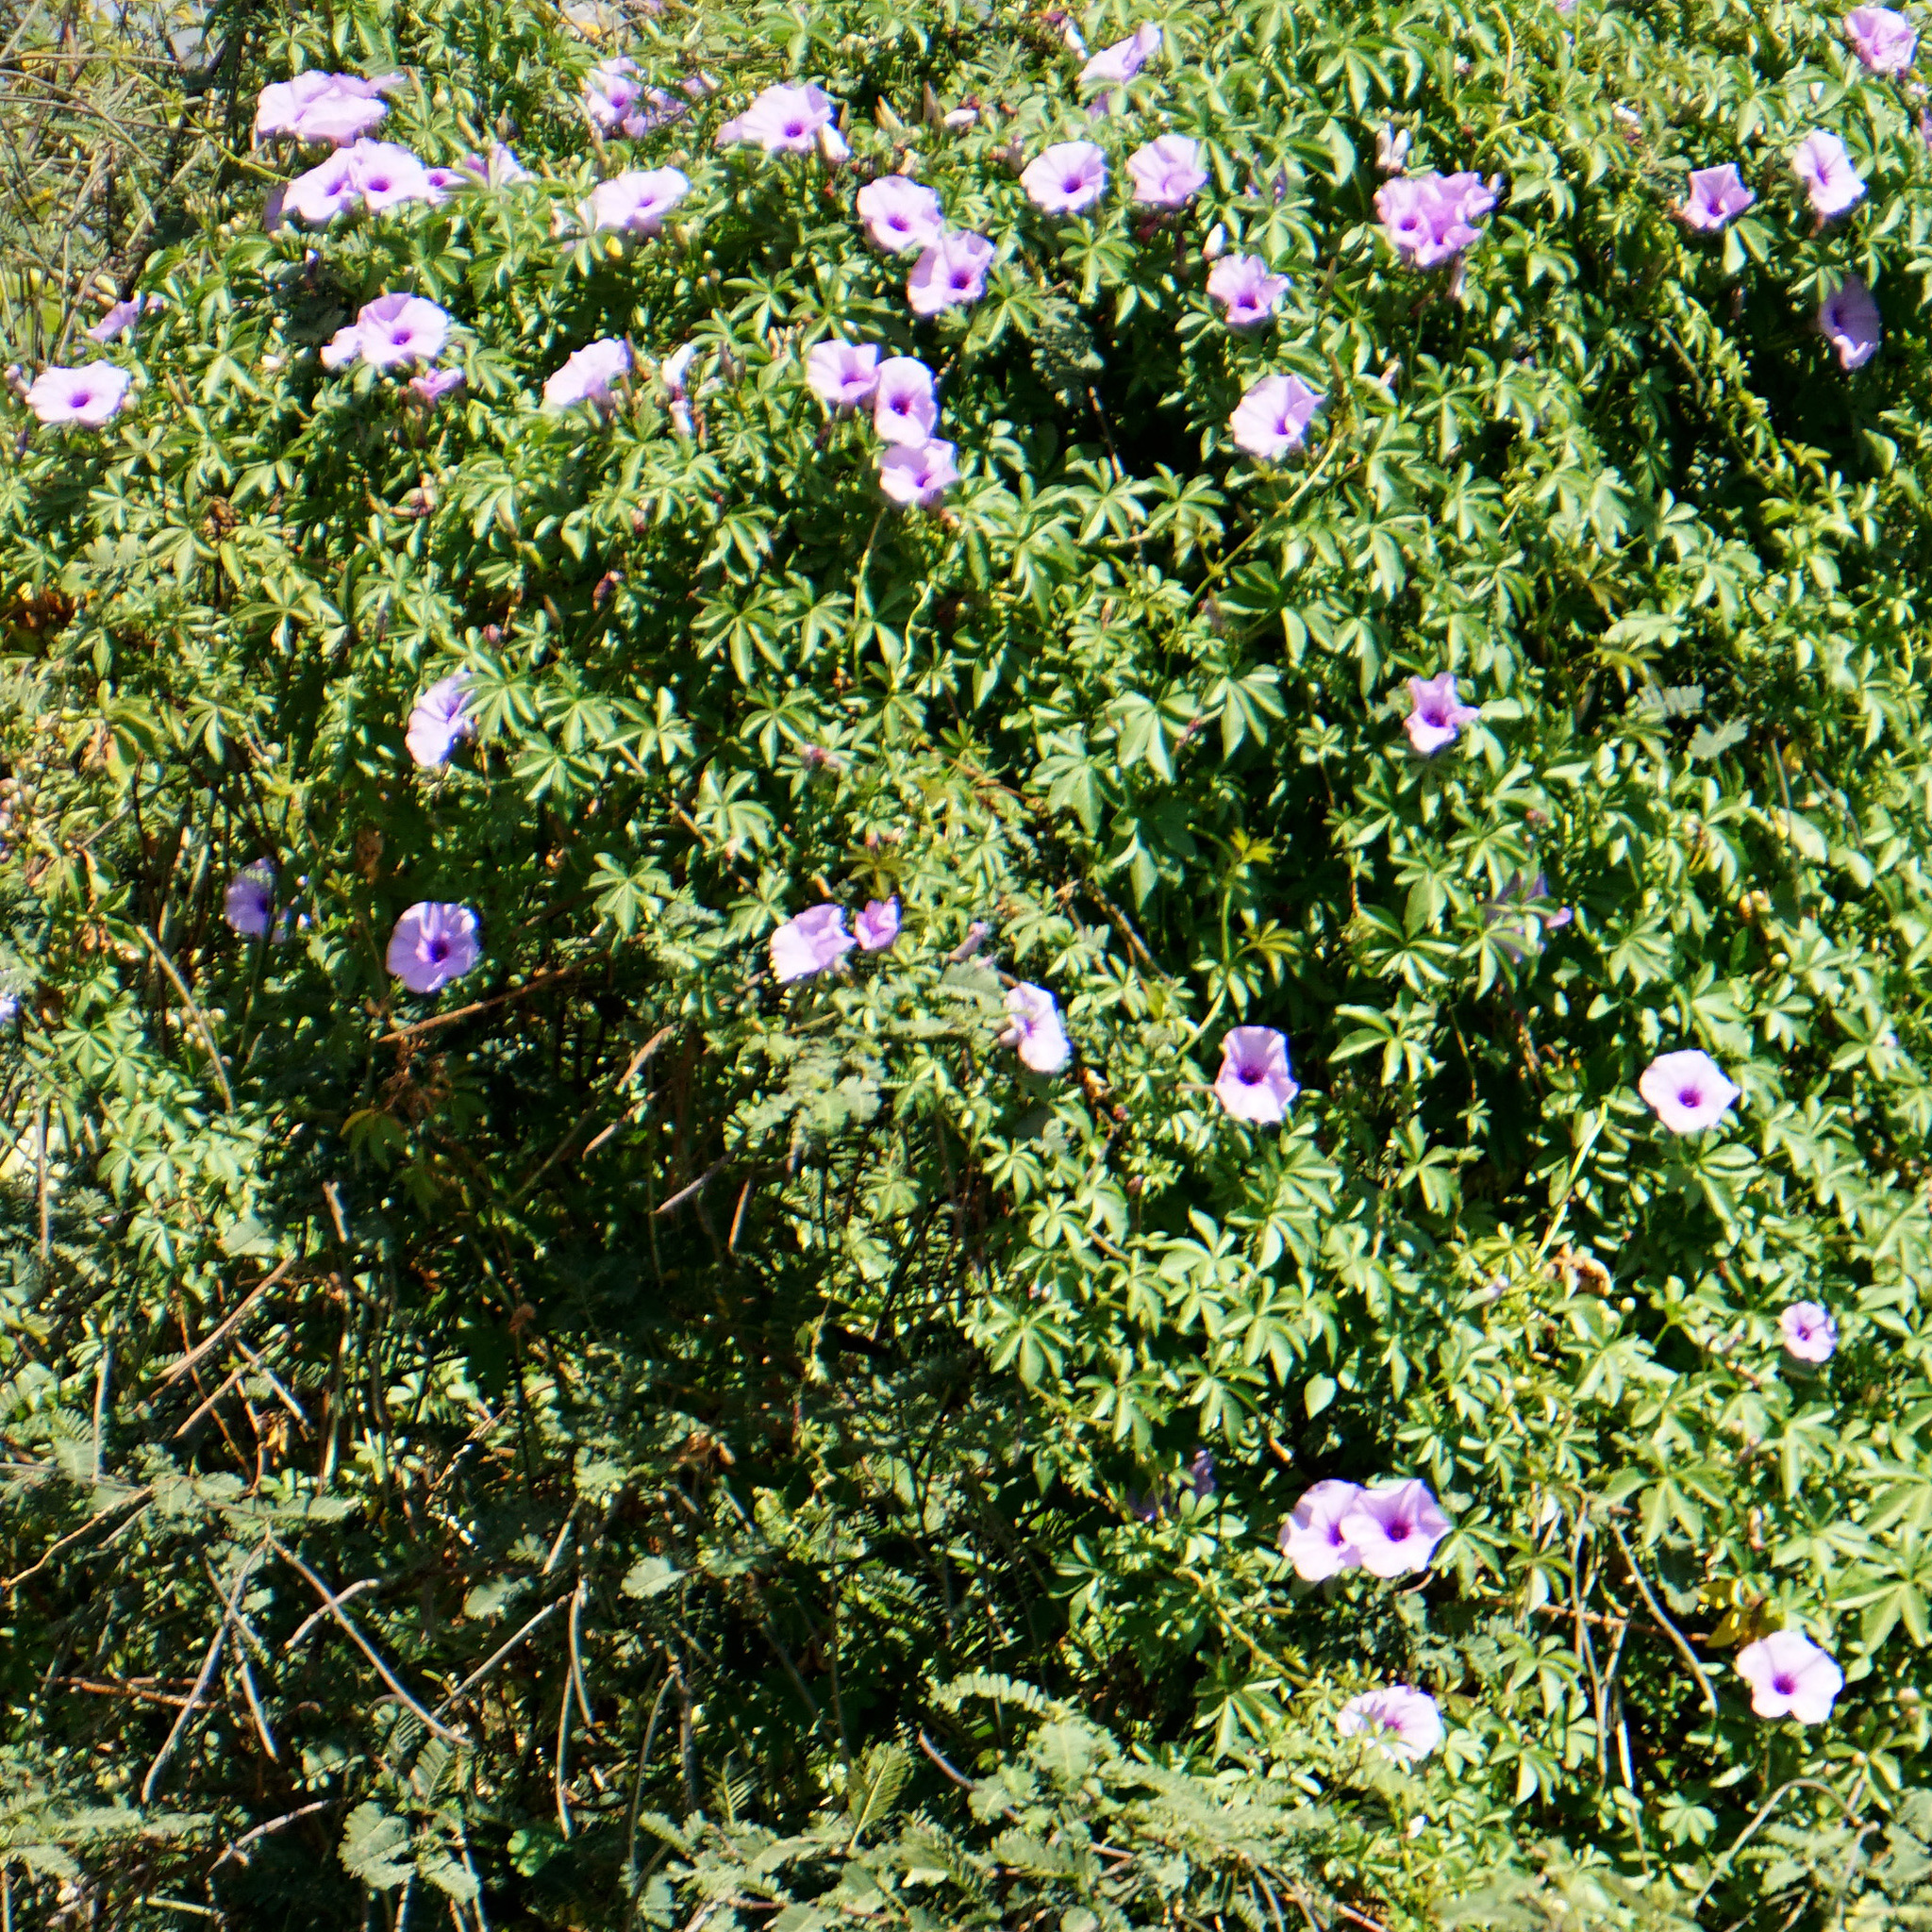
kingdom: Plantae
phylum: Tracheophyta
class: Magnoliopsida
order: Solanales
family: Convolvulaceae
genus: Ipomoea
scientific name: Ipomoea cairica
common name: Mile a minute vine
